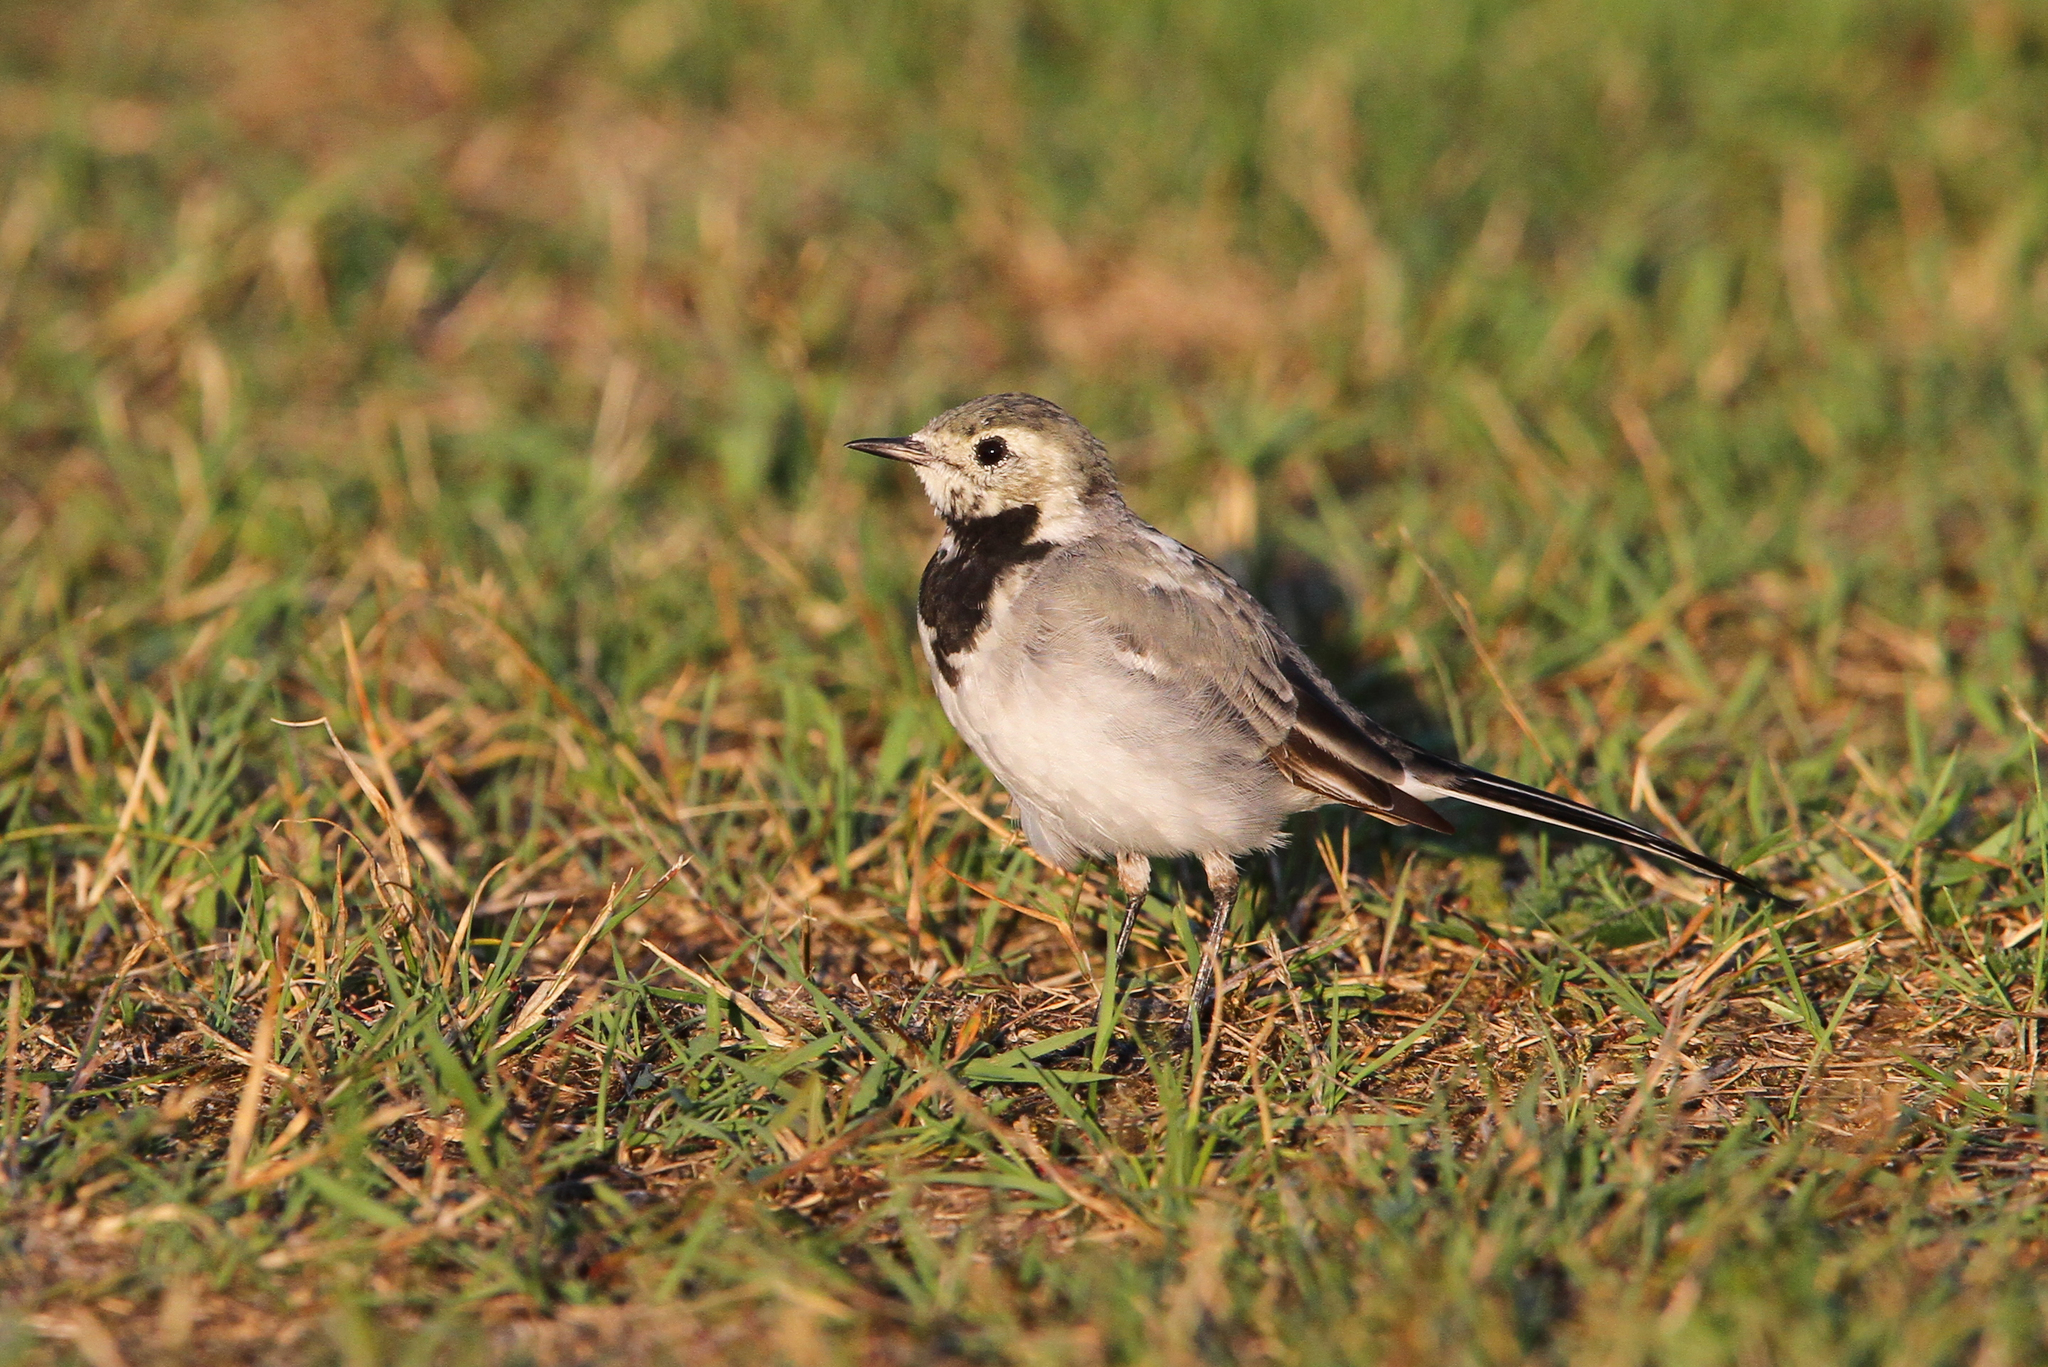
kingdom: Animalia
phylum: Chordata
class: Aves
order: Passeriformes
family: Motacillidae
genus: Motacilla
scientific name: Motacilla alba
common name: White wagtail
